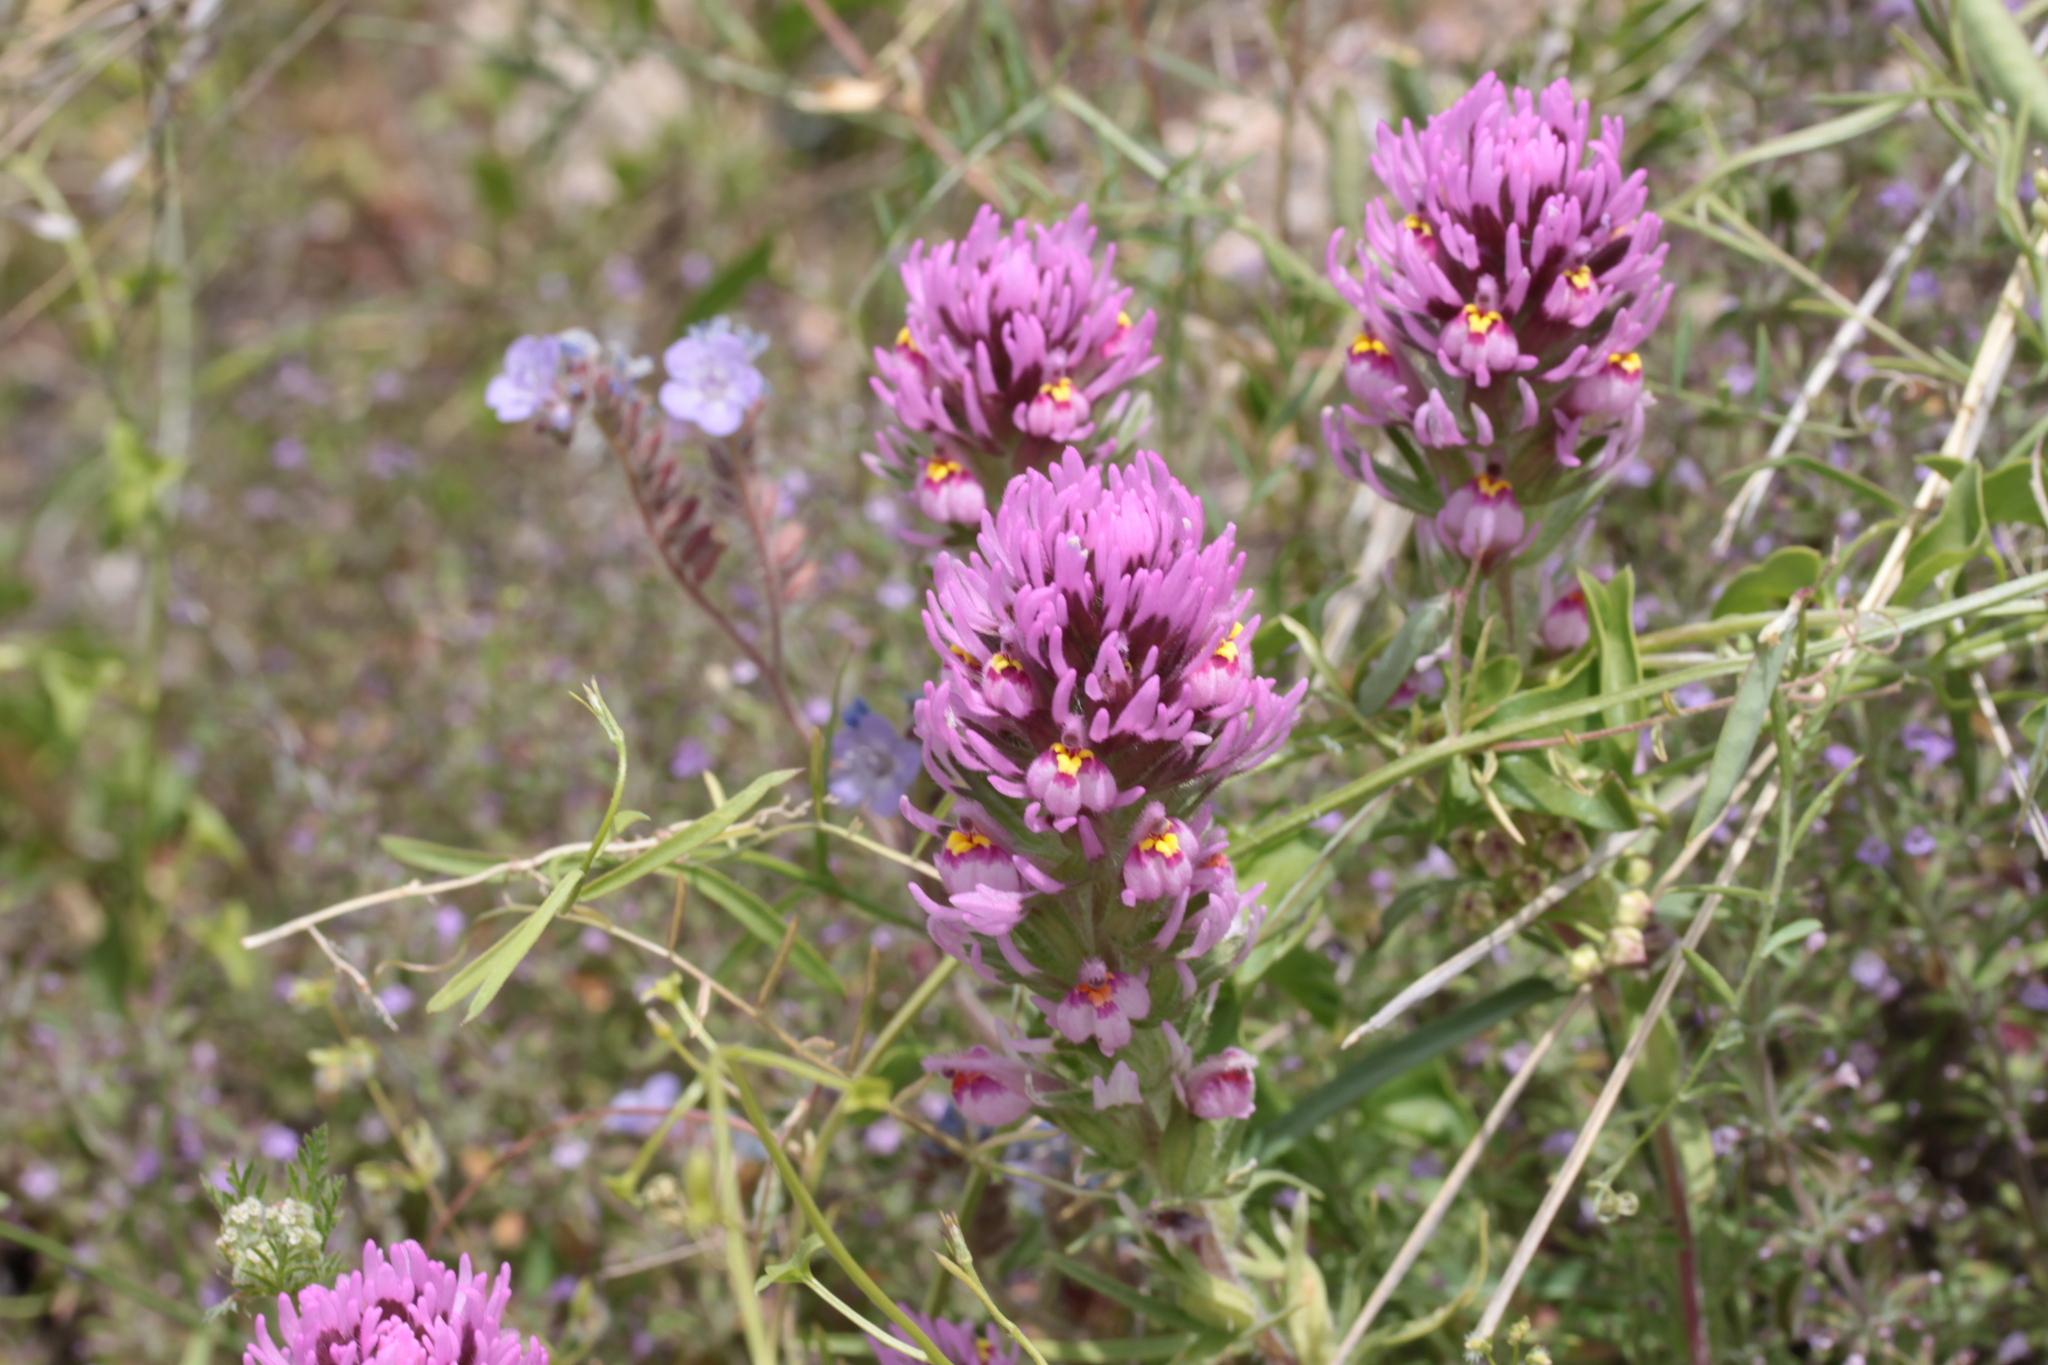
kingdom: Plantae
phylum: Tracheophyta
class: Magnoliopsida
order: Lamiales
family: Orobanchaceae
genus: Castilleja
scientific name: Castilleja exserta
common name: Purple owl-clover
